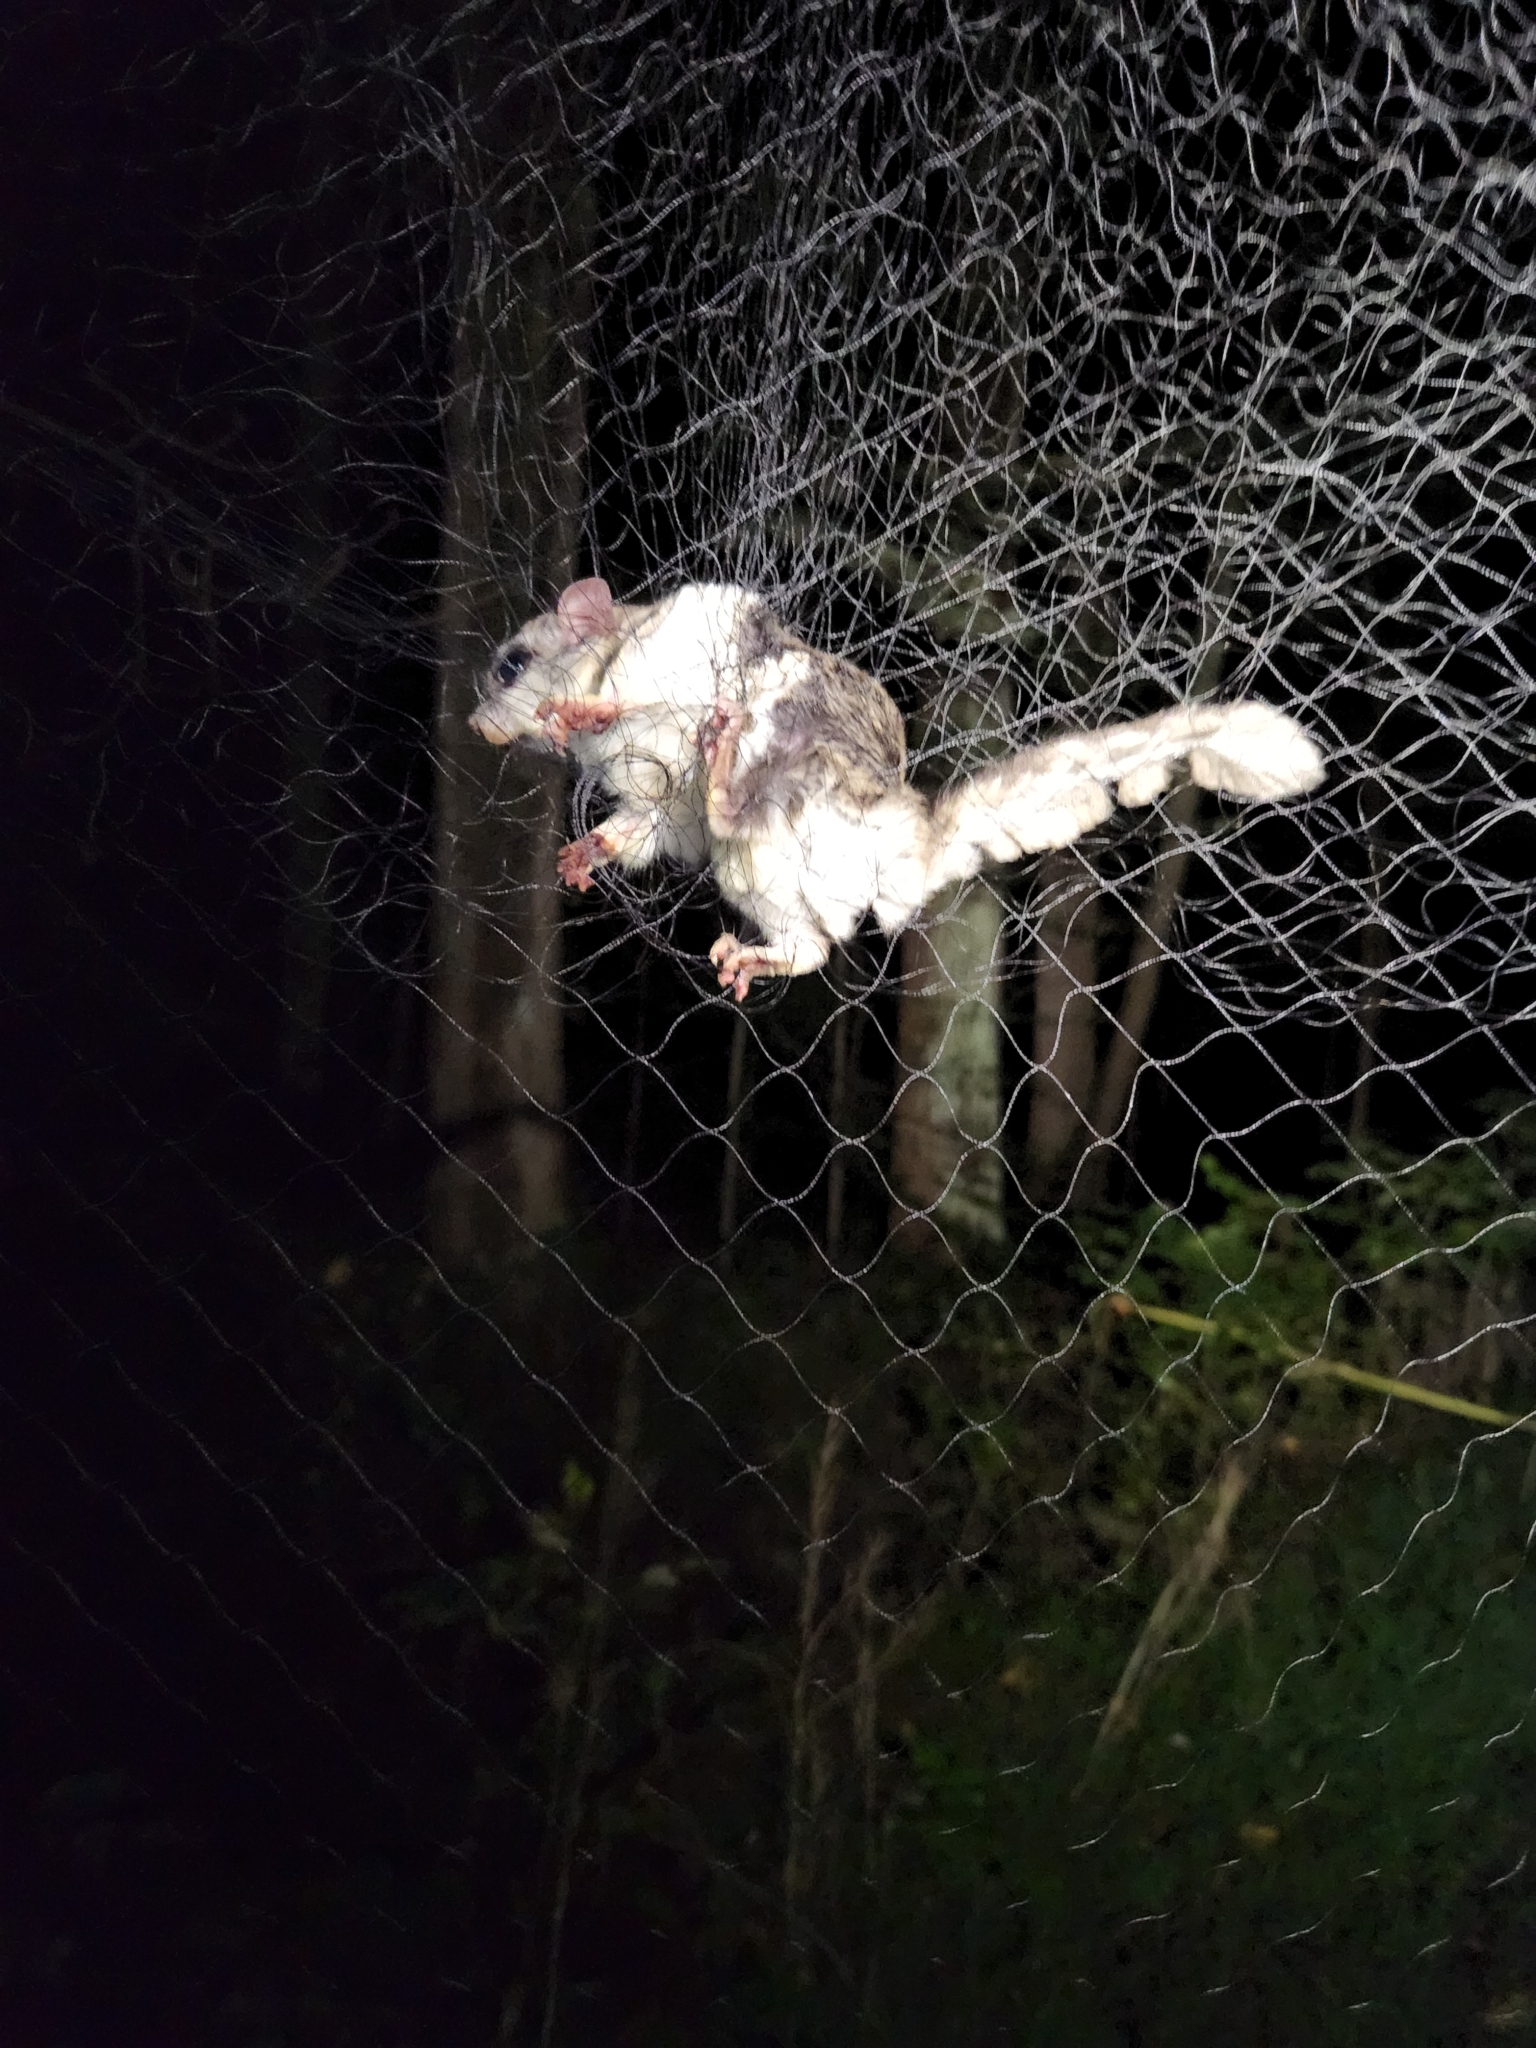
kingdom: Animalia
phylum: Chordata
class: Mammalia
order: Rodentia
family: Sciuridae
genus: Glaucomys
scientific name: Glaucomys volans
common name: Southern flying squirrel
